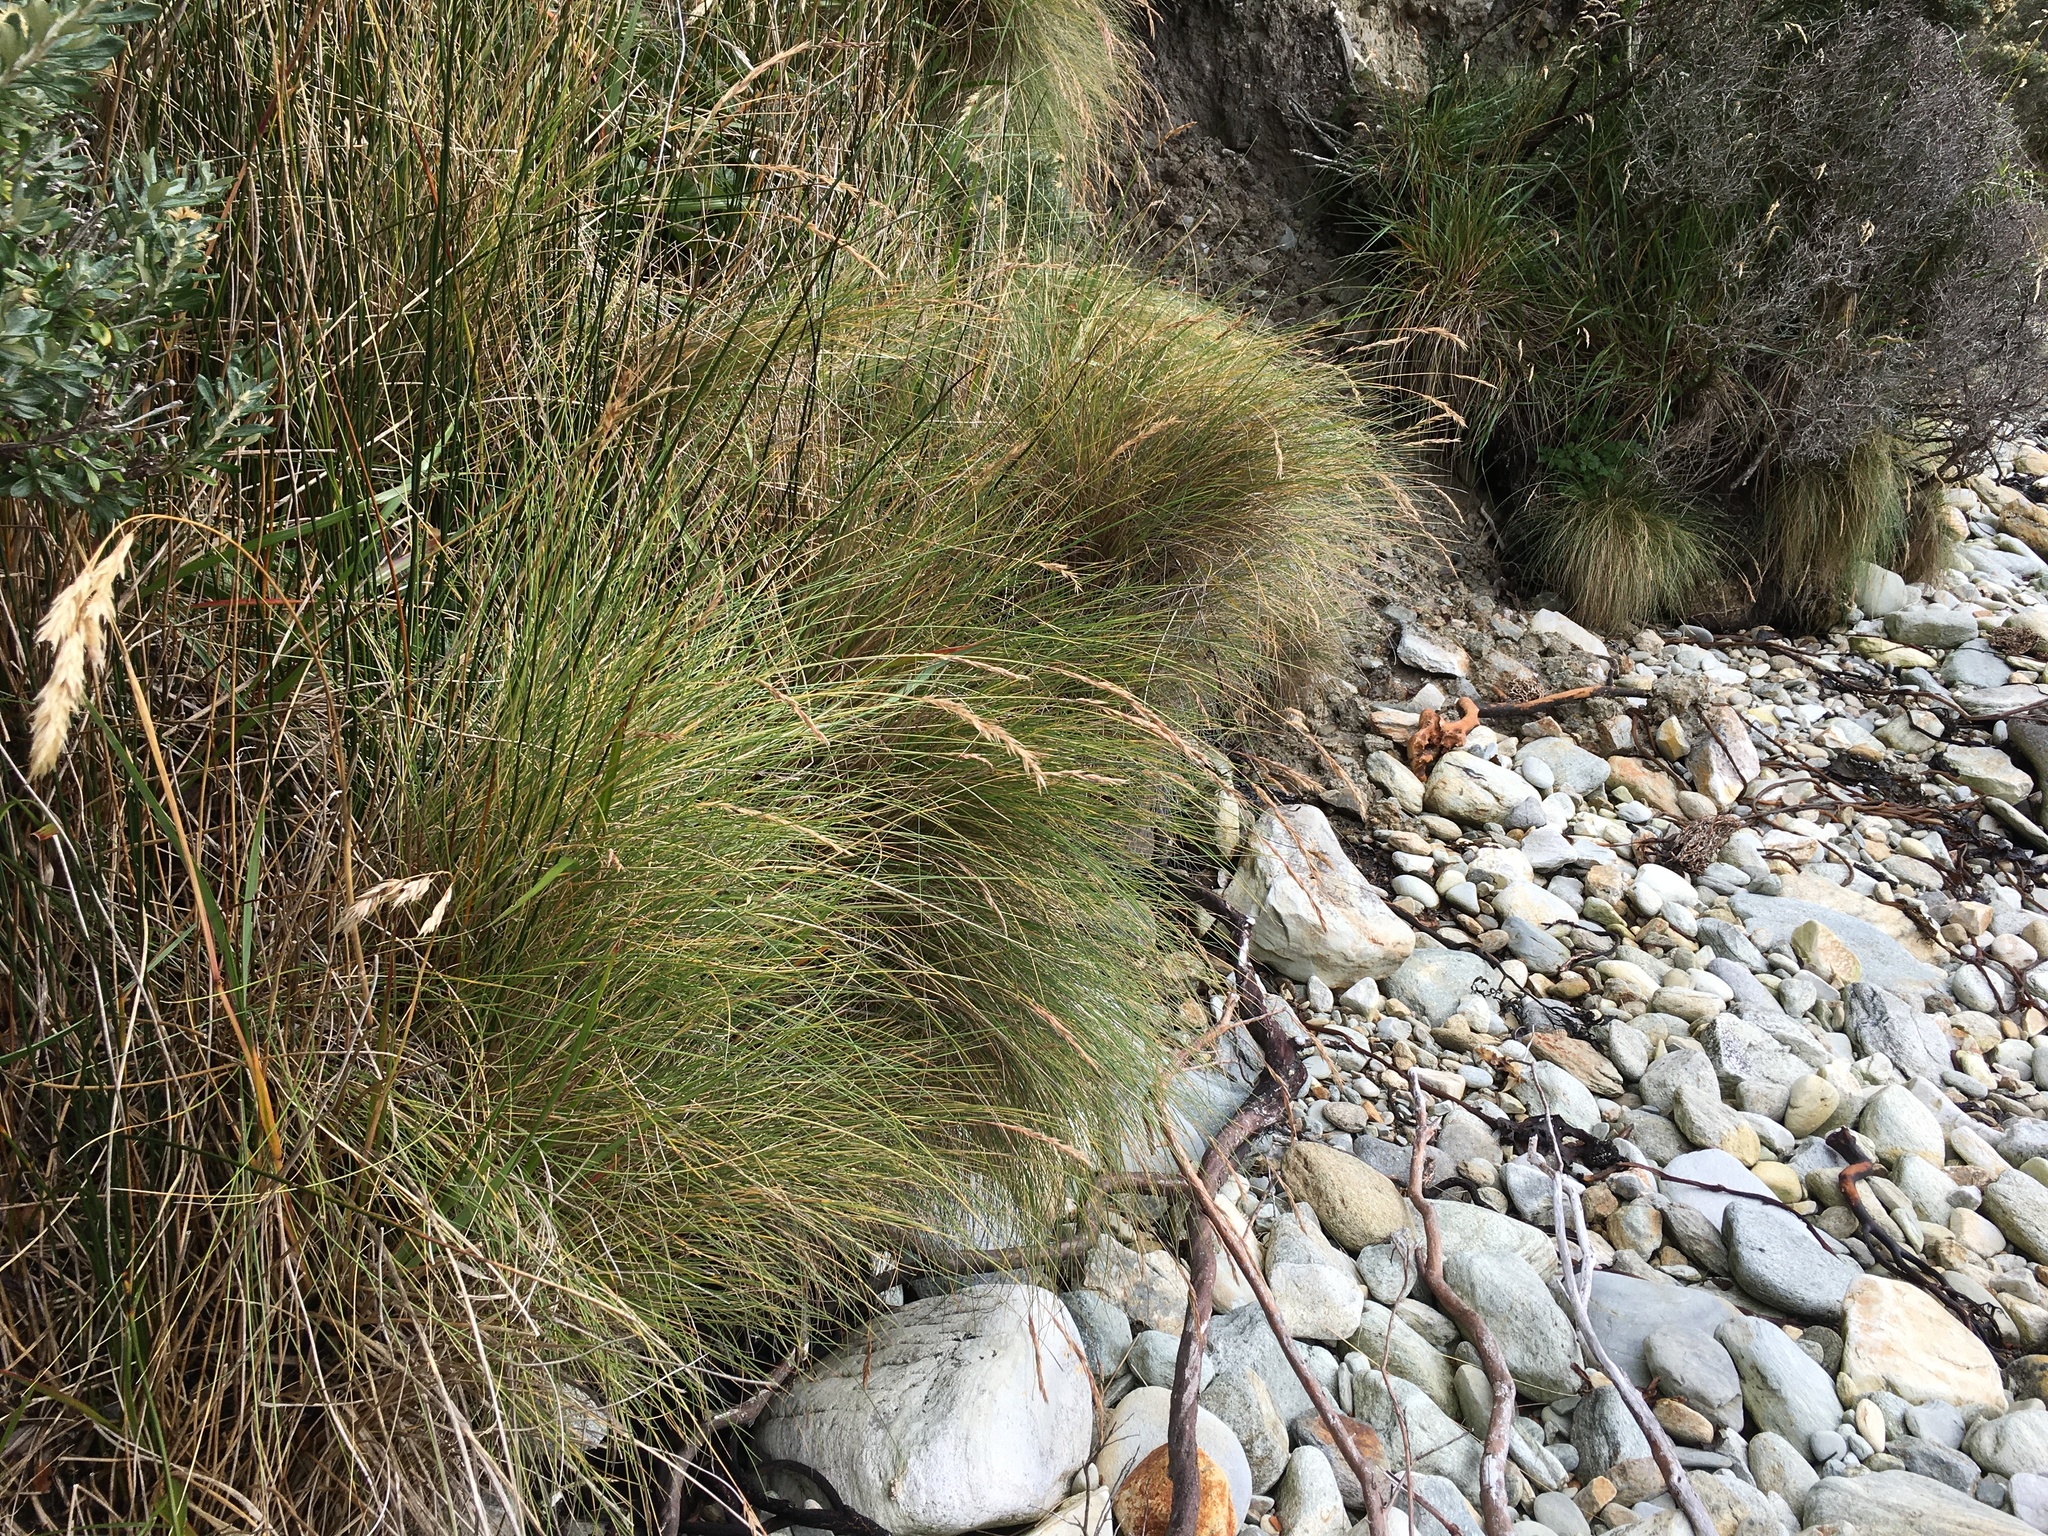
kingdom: Plantae
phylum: Tracheophyta
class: Liliopsida
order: Poales
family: Poaceae
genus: Poa
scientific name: Poa flabellata
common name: Tussac-grass
